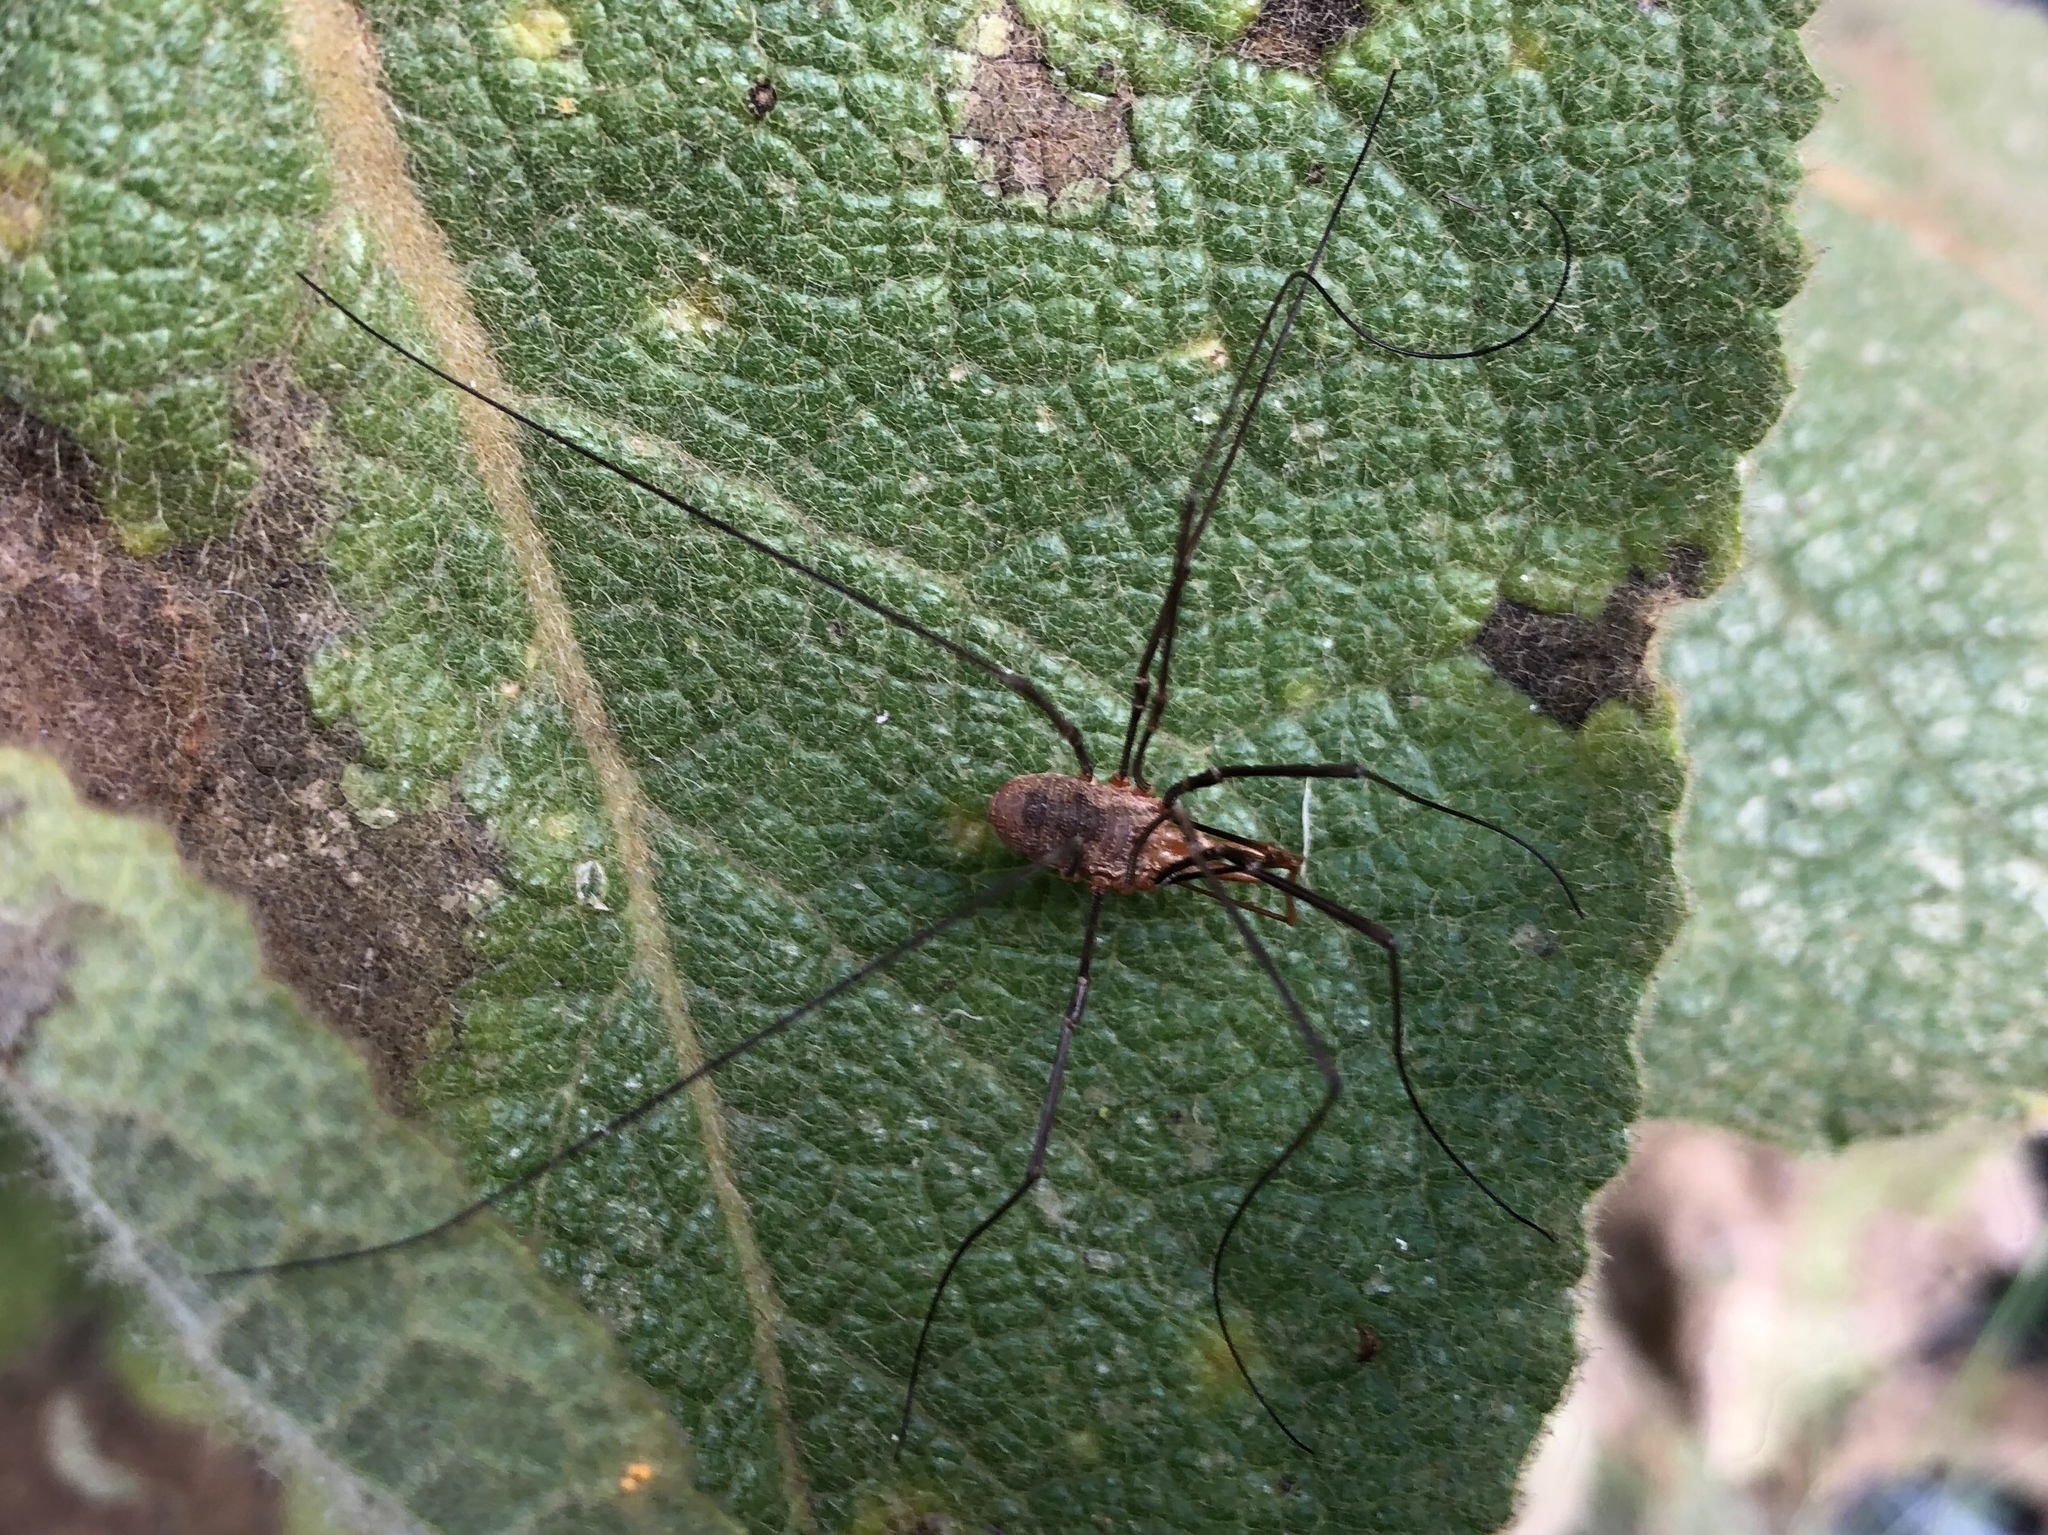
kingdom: Animalia
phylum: Arthropoda
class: Arachnida
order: Opiliones
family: Phalangiidae
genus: Phalangium
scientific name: Phalangium opilio
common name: Daddy longleg
